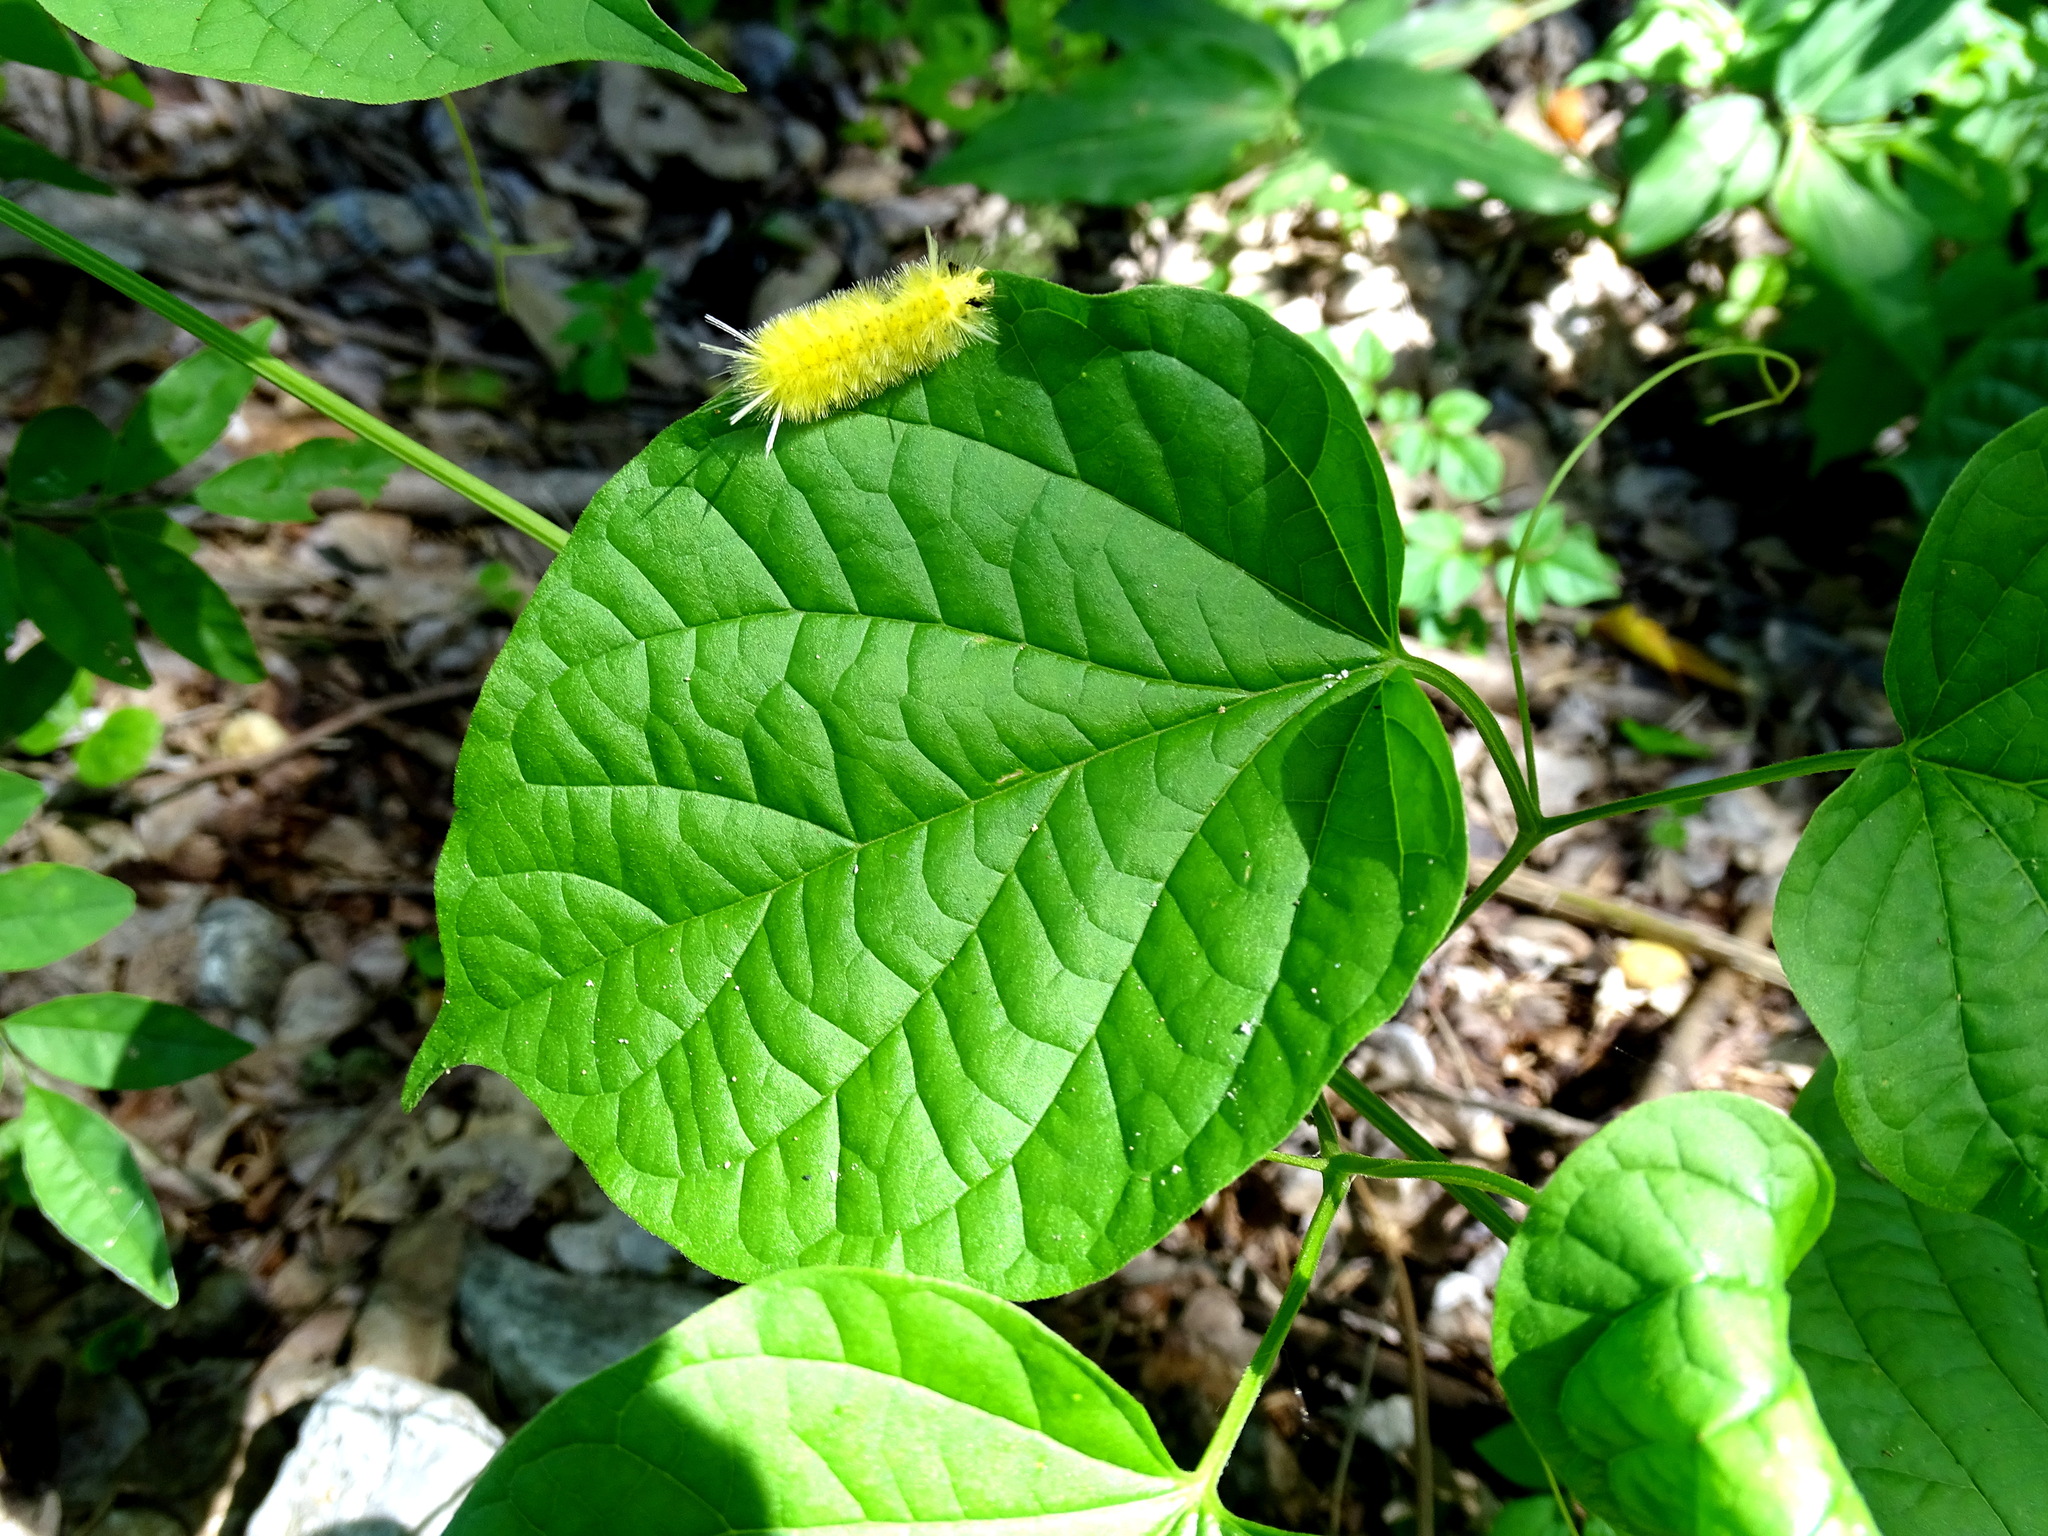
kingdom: Animalia
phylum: Arthropoda
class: Insecta
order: Lepidoptera
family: Erebidae
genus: Lophocampa
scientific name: Lophocampa annulosa
